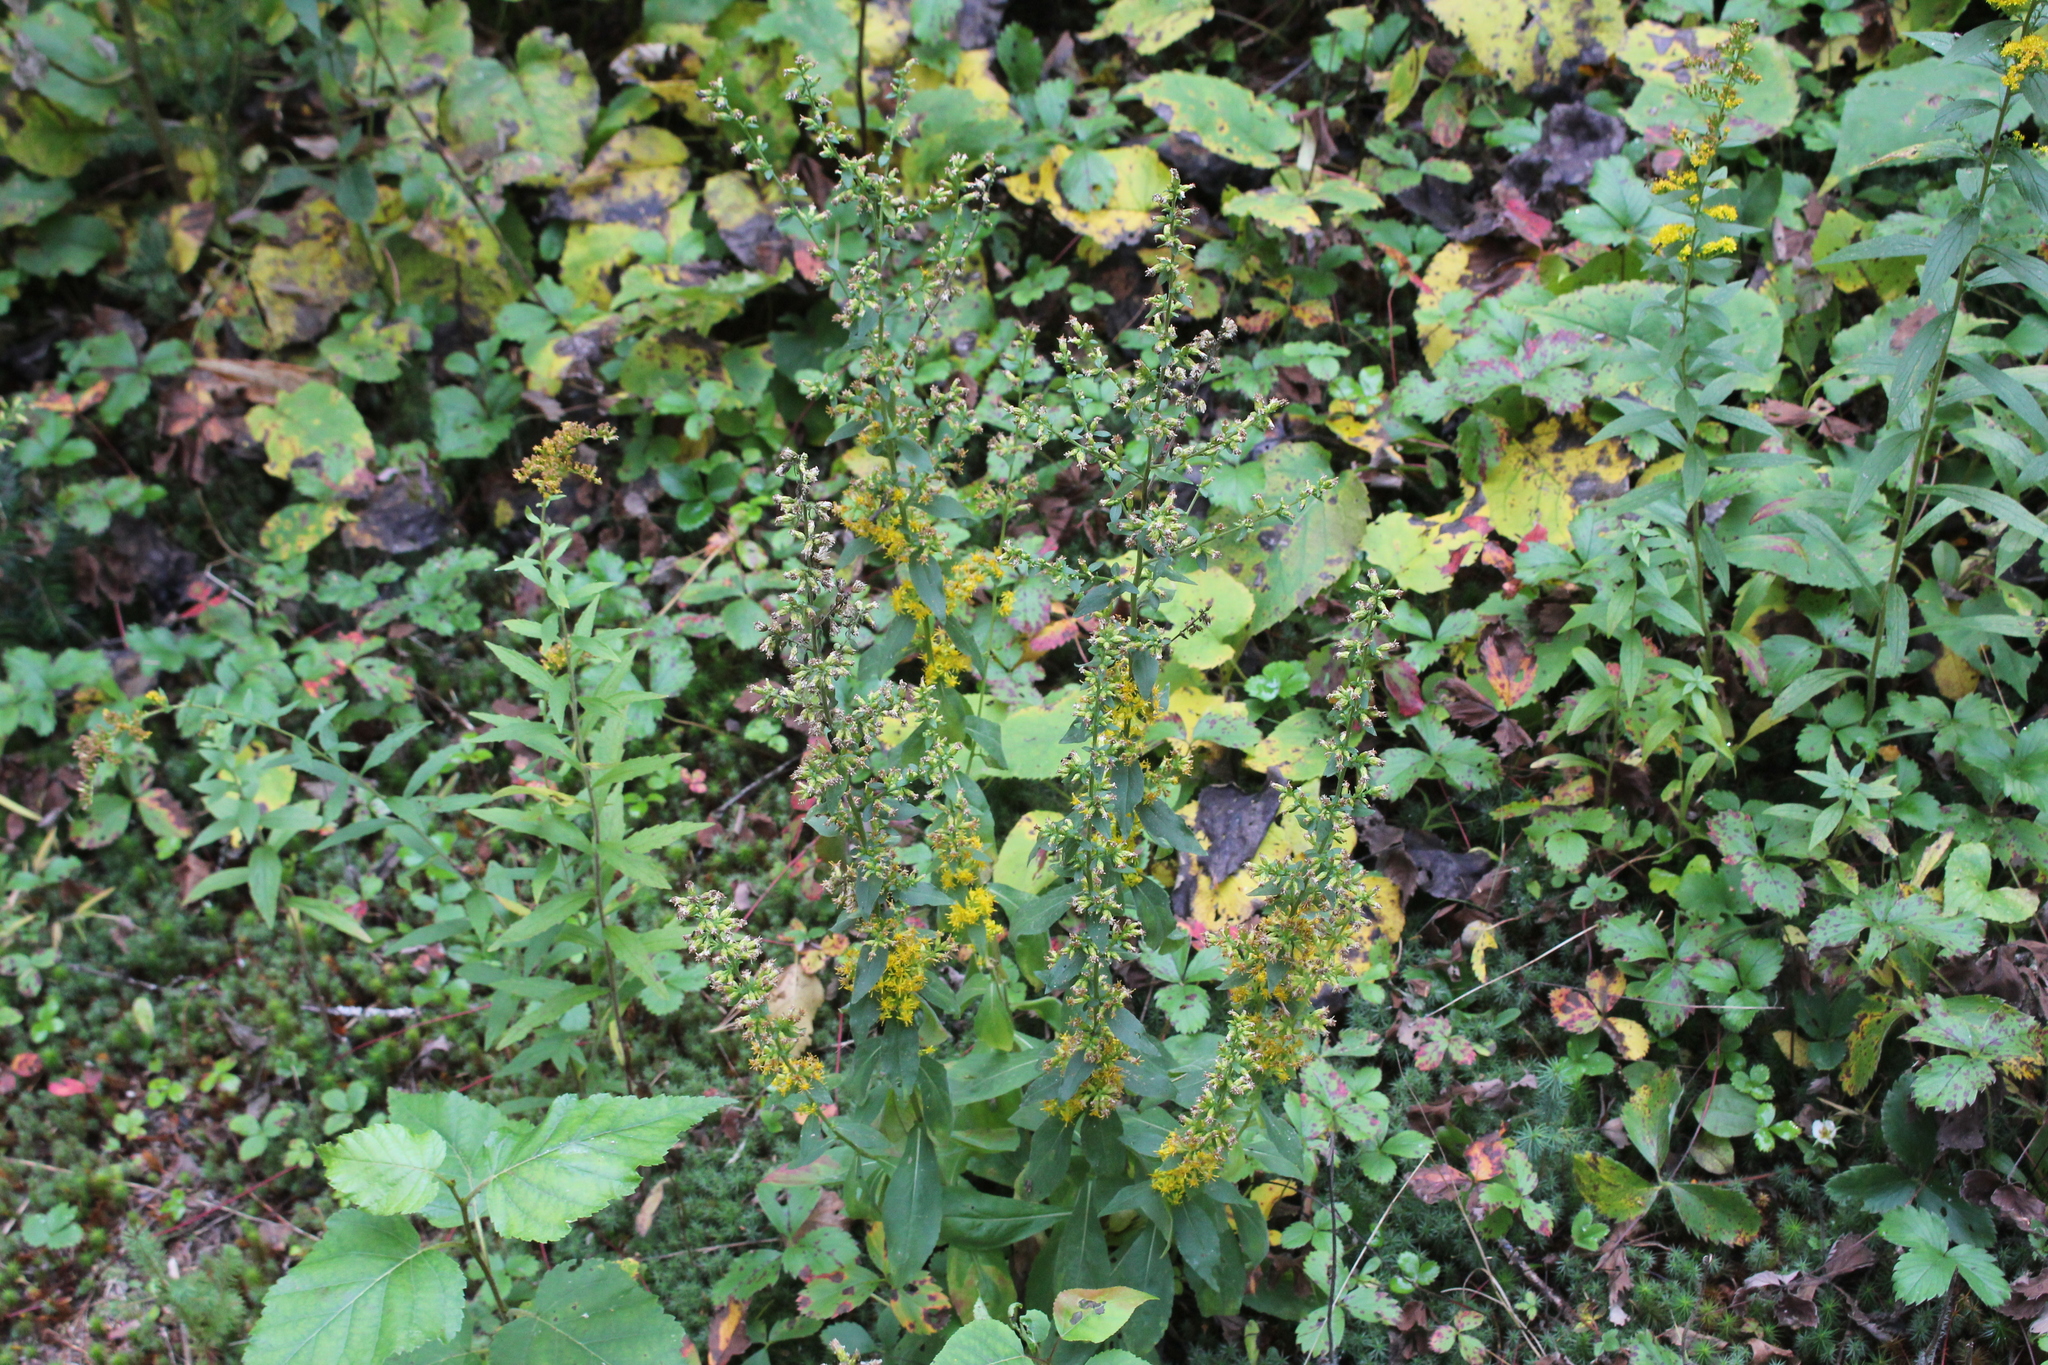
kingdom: Plantae
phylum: Tracheophyta
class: Magnoliopsida
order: Asterales
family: Asteraceae
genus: Solidago
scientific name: Solidago hispida
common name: Hairy goldenrod
